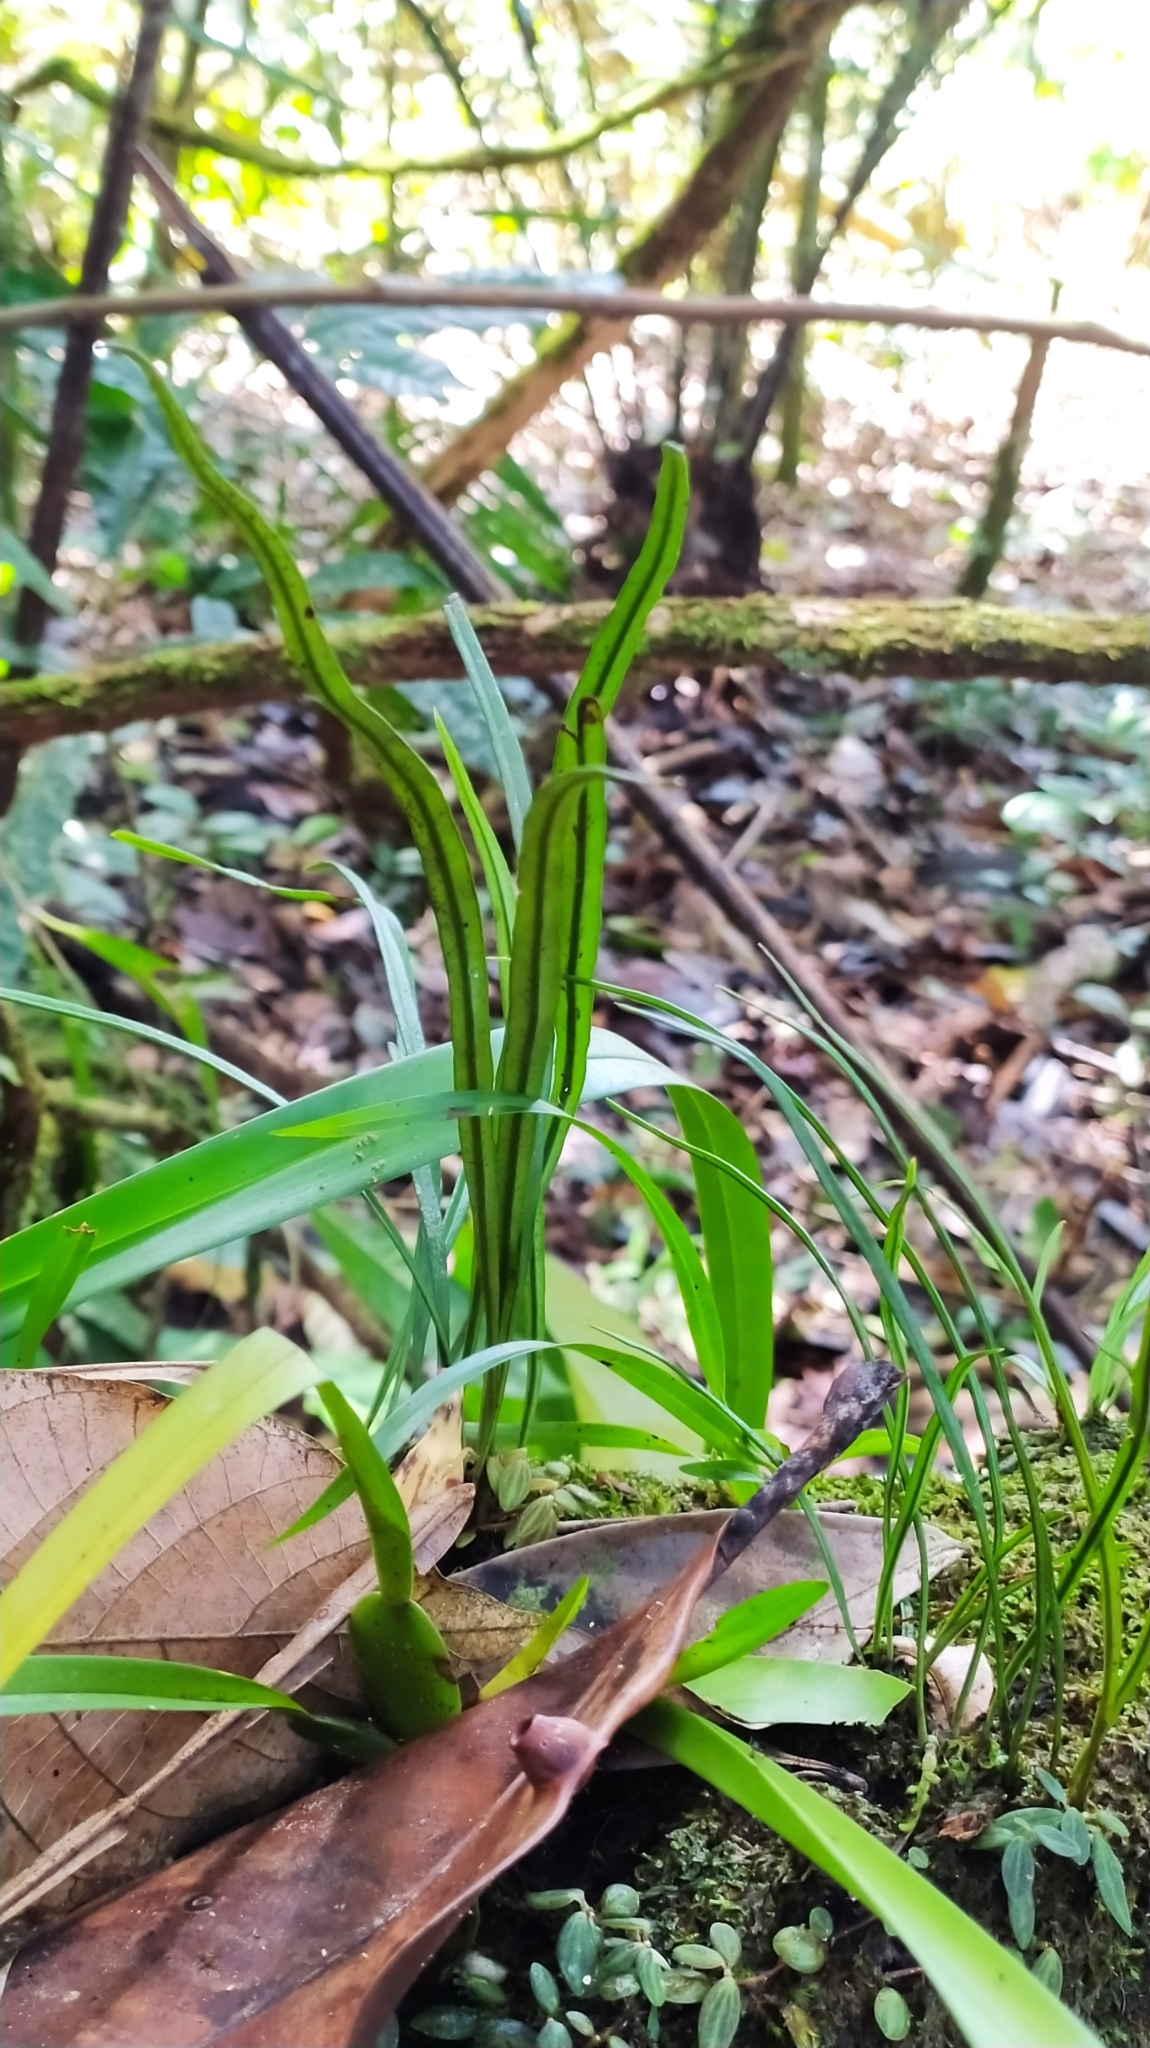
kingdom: Plantae
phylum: Tracheophyta
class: Polypodiopsida
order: Polypodiales
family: Dryopteridaceae
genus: Elaphoglossum
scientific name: Elaphoglossum glabellum
